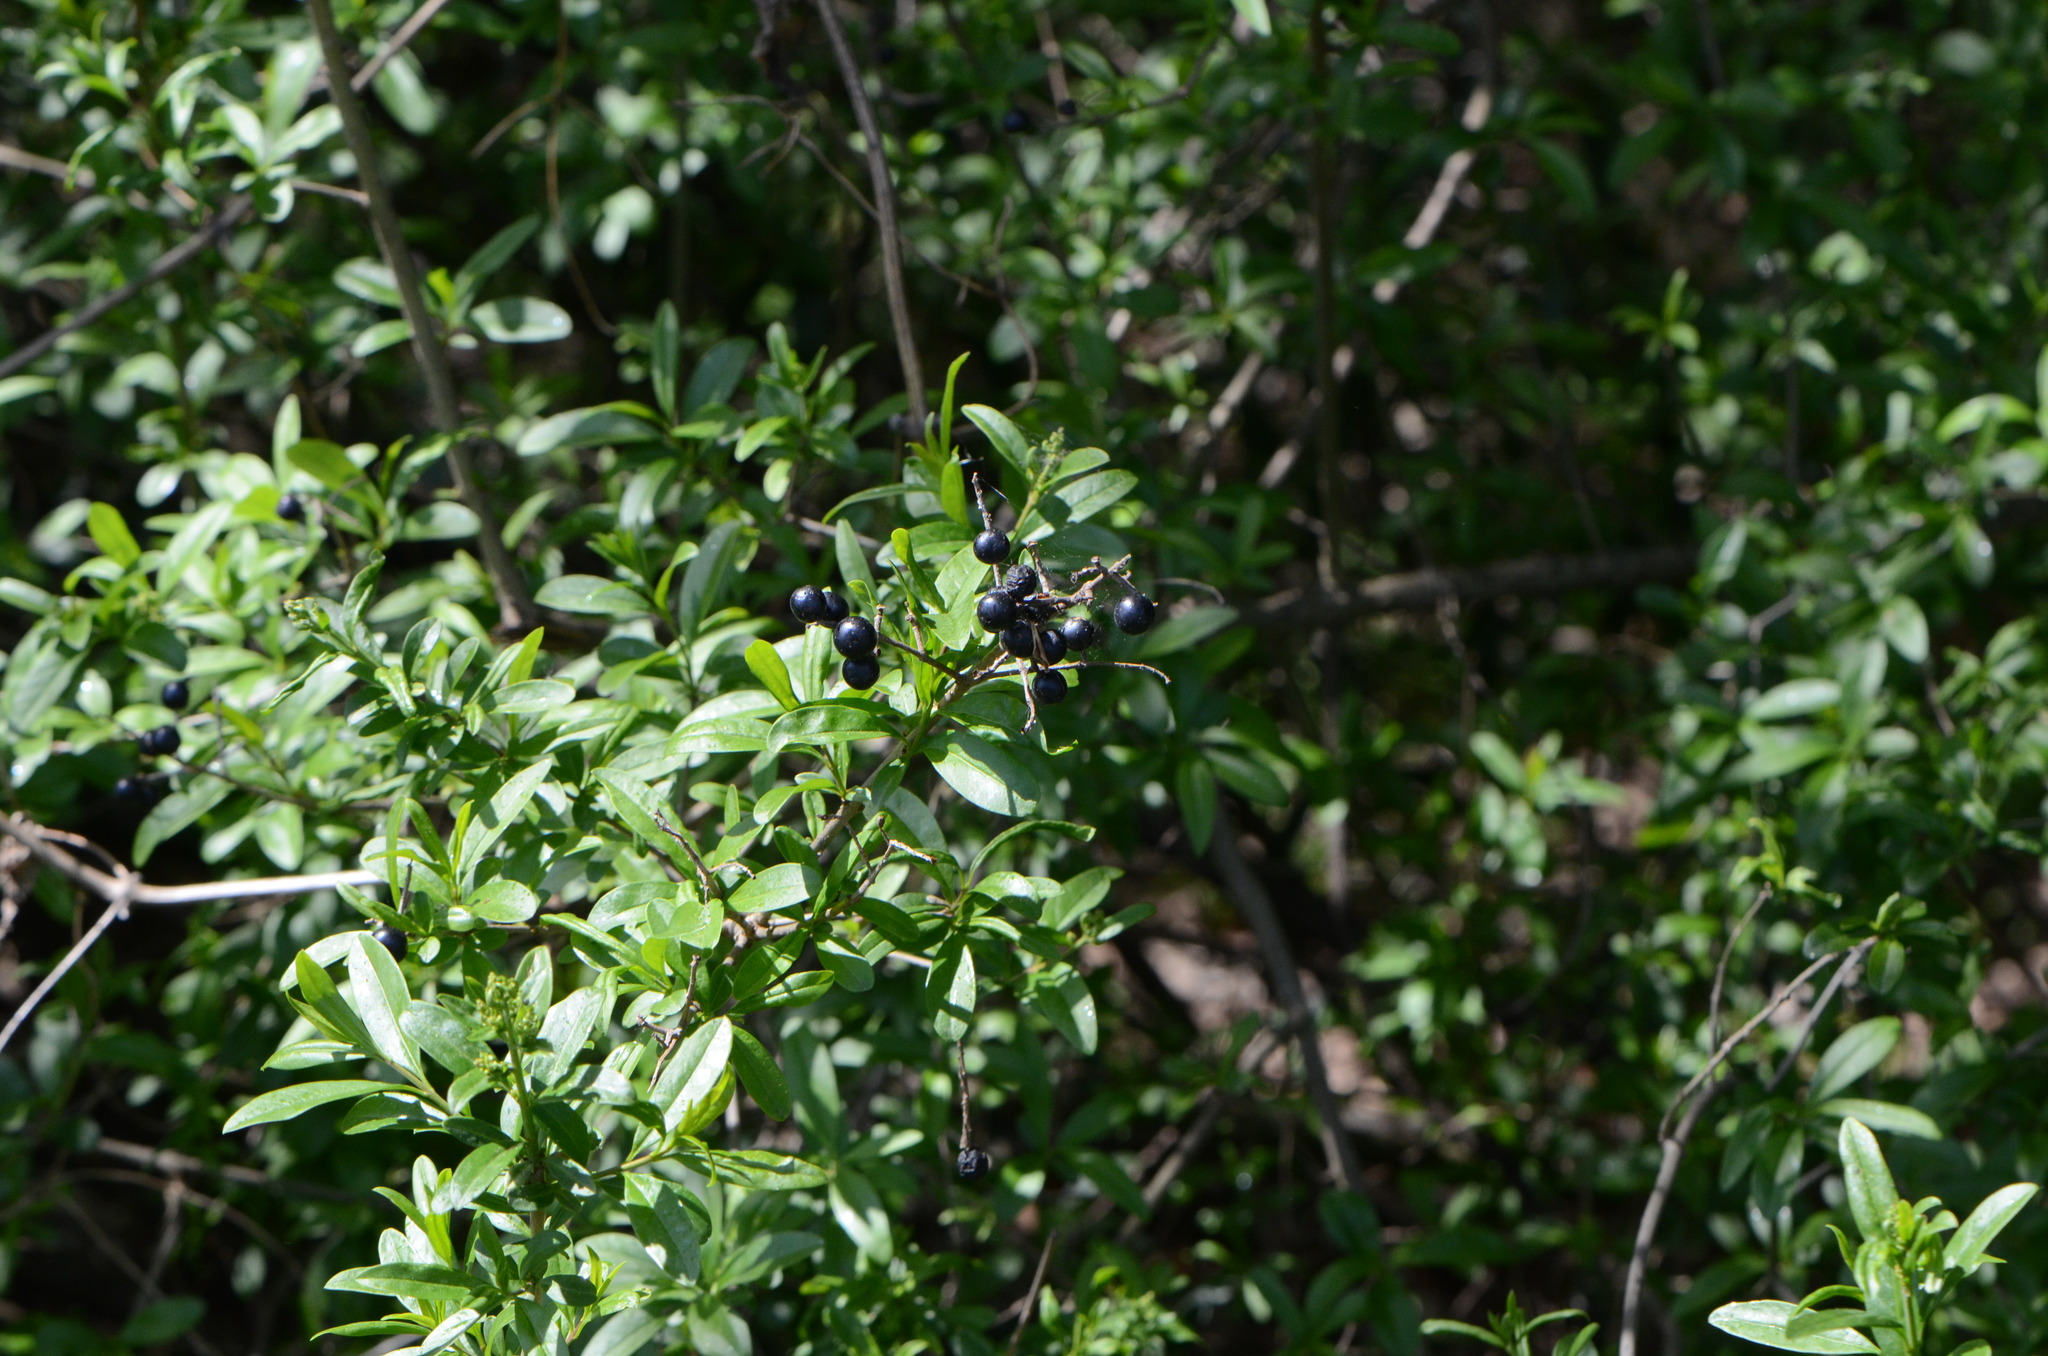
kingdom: Plantae
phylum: Tracheophyta
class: Magnoliopsida
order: Lamiales
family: Oleaceae
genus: Ligustrum
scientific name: Ligustrum vulgare
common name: Wild privet
